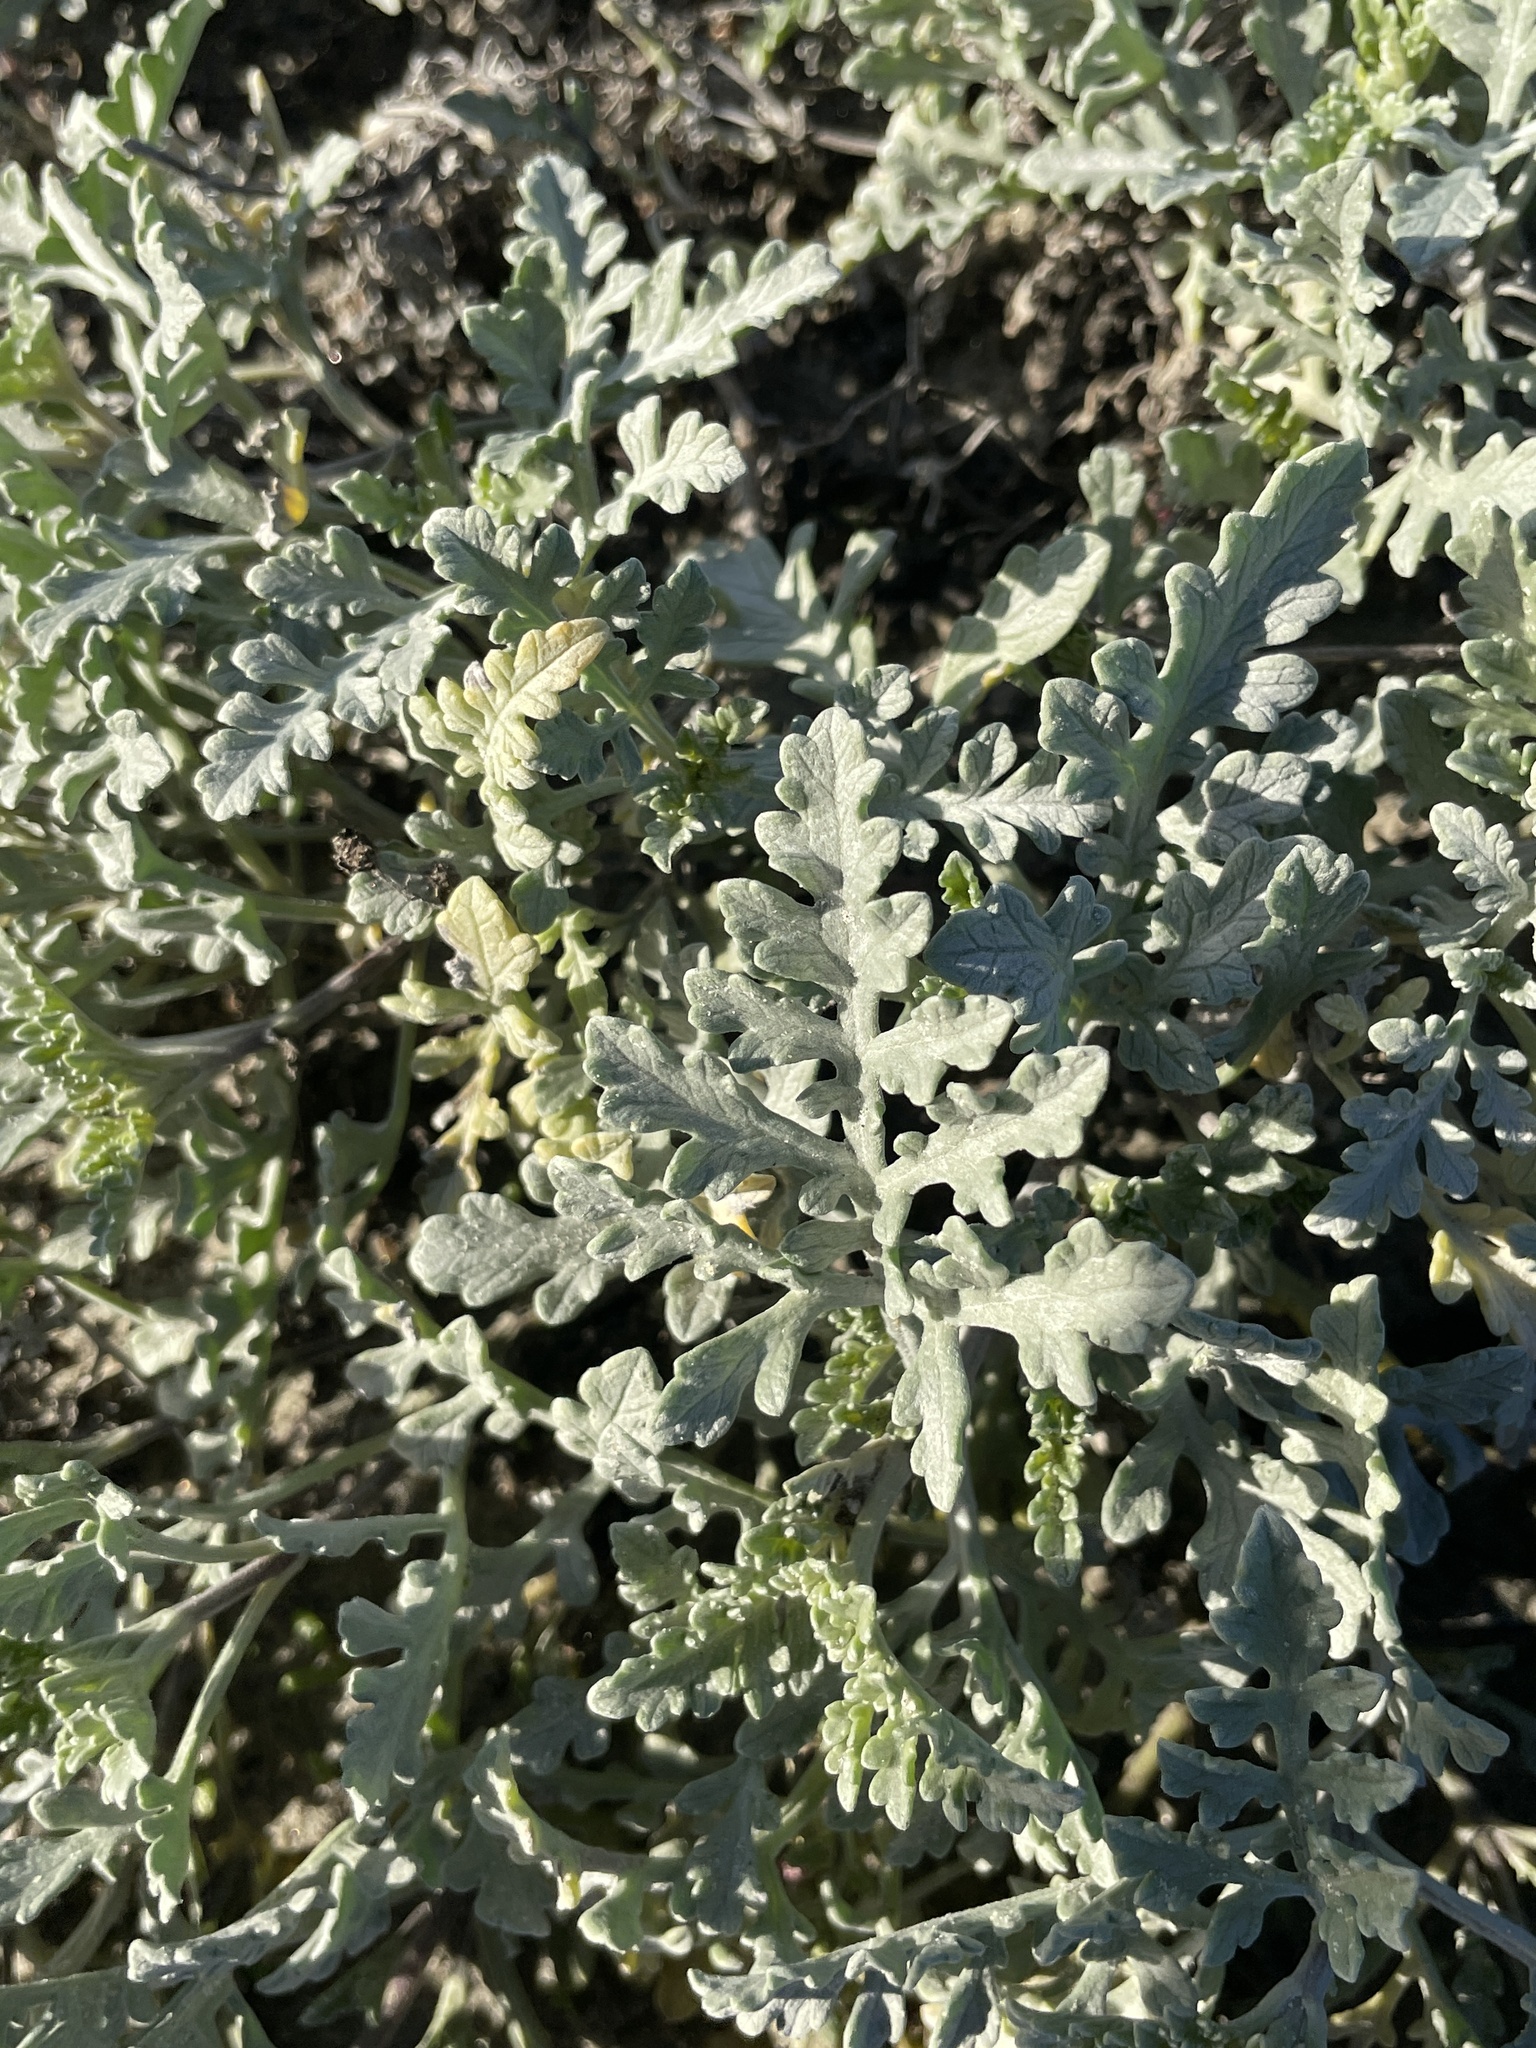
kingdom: Plantae
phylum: Tracheophyta
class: Magnoliopsida
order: Asterales
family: Asteraceae
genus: Ambrosia
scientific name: Ambrosia chamissonis
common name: Beachbur
